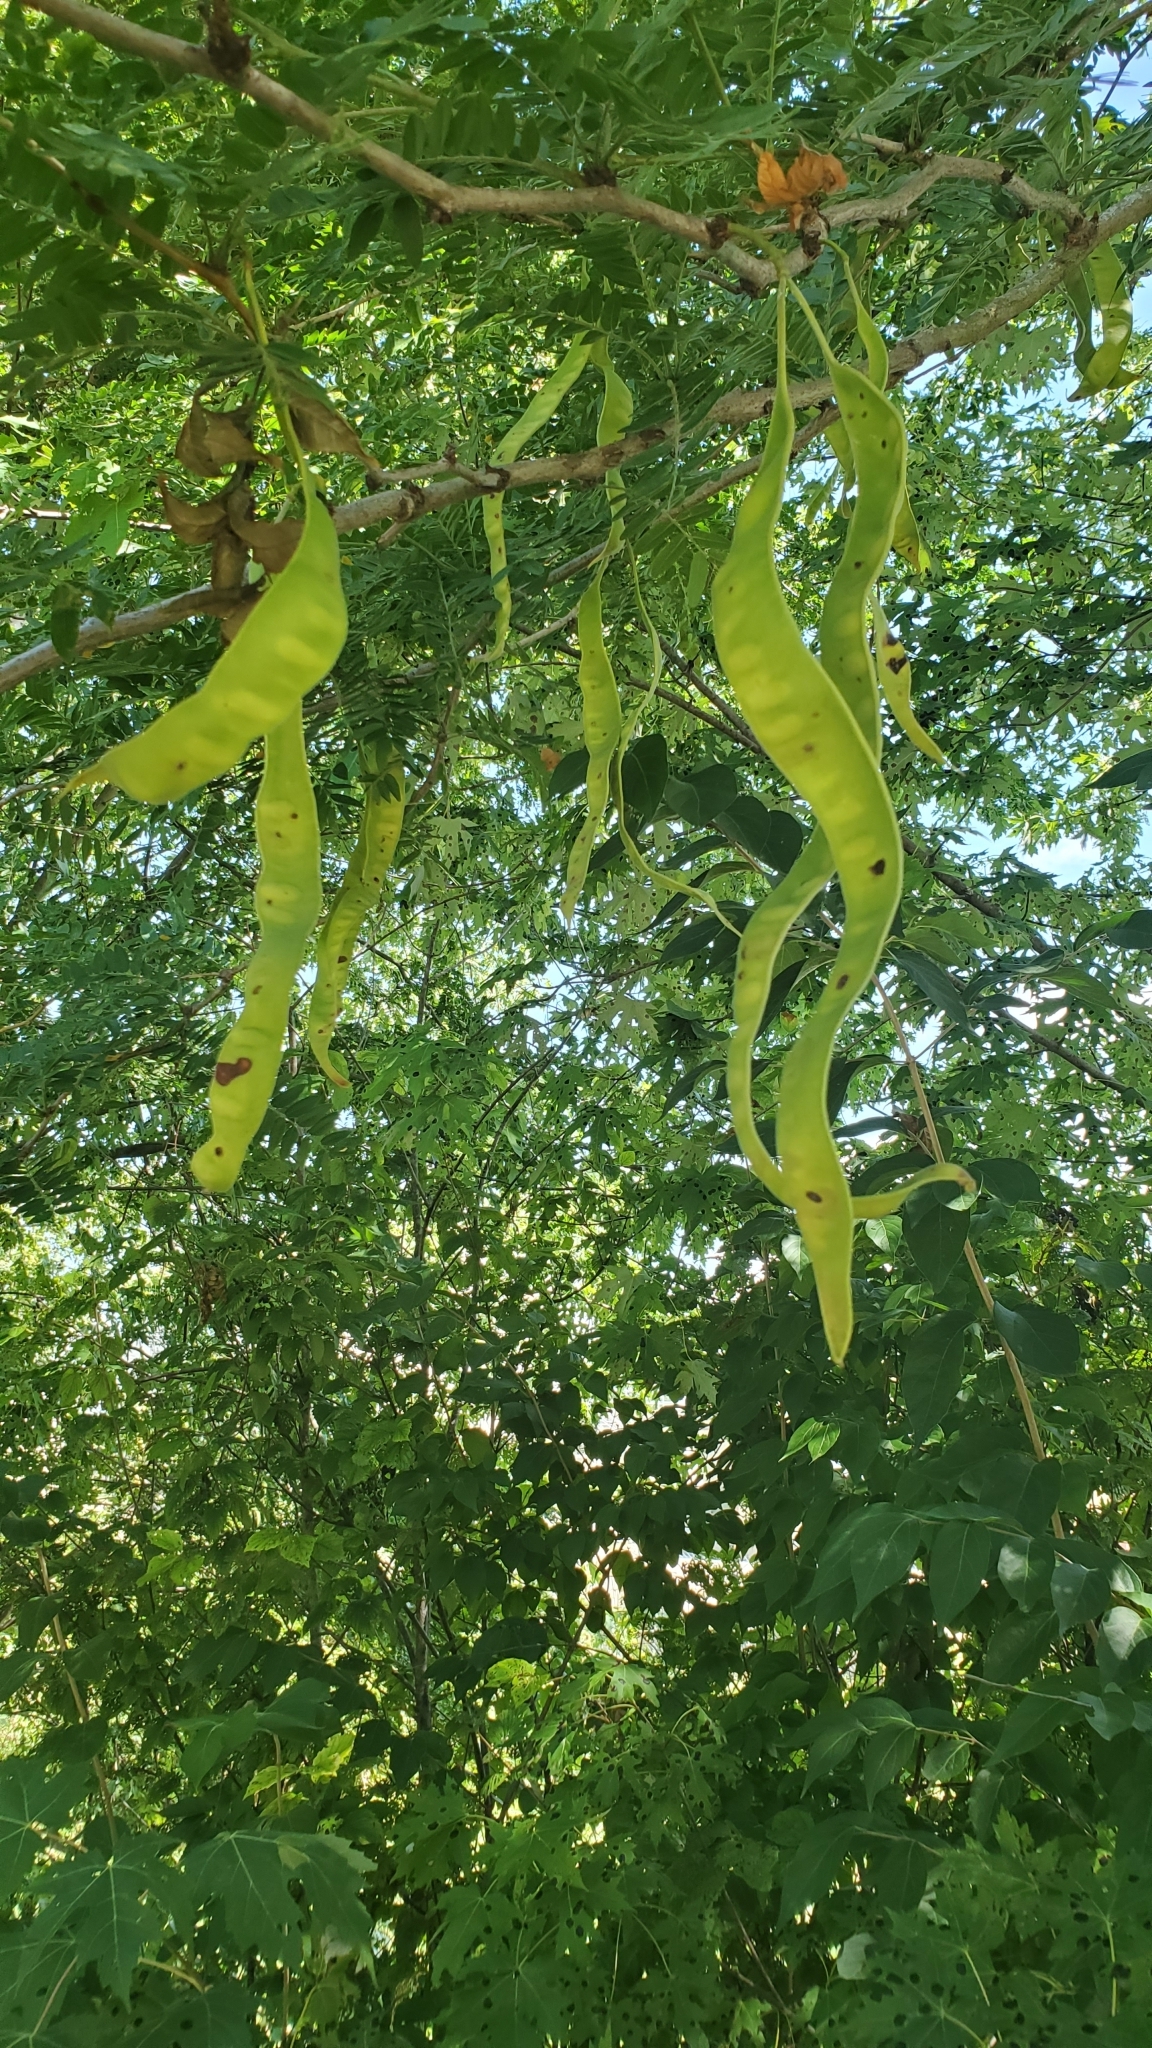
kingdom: Plantae
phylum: Tracheophyta
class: Magnoliopsida
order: Fabales
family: Fabaceae
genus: Gleditsia
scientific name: Gleditsia triacanthos
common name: Common honeylocust
